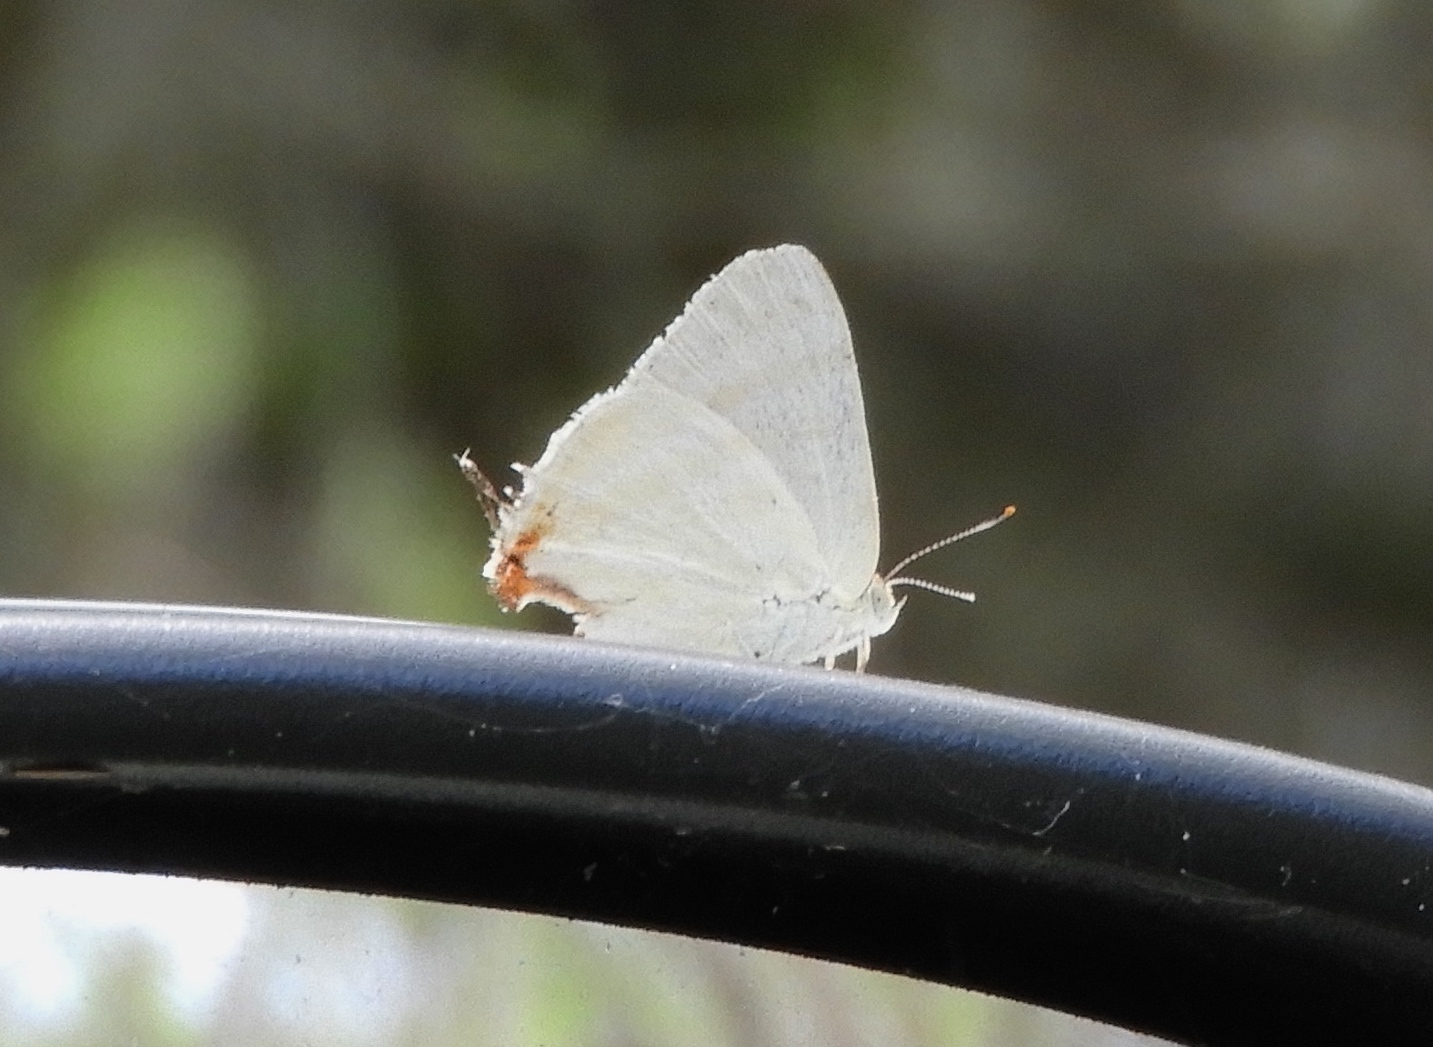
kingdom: Animalia
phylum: Arthropoda
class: Insecta
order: Lepidoptera
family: Lycaenidae
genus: Dolymorpha
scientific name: Dolymorpha jada
